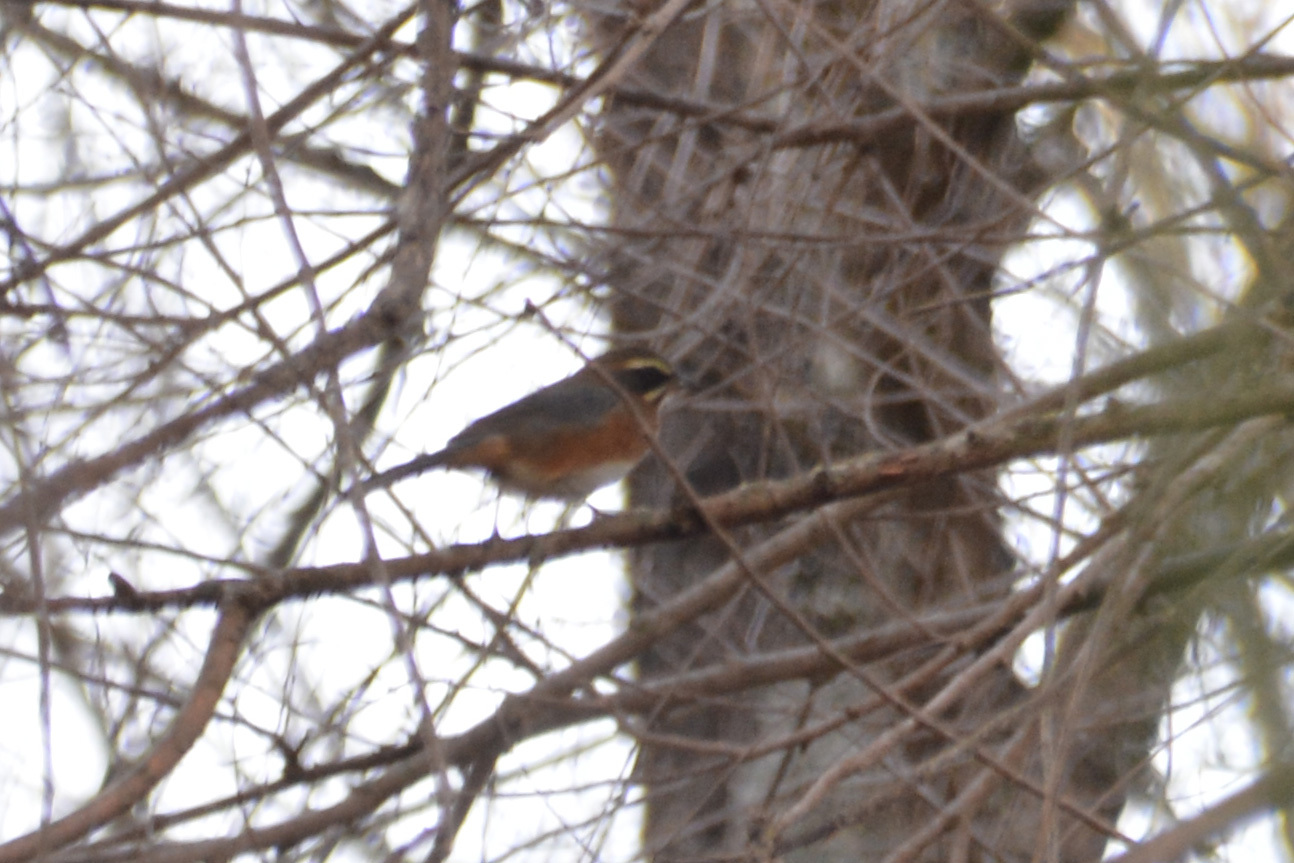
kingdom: Animalia
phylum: Chordata
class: Aves
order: Passeriformes
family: Thraupidae
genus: Poospiza
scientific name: Poospiza whitii
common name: Black-and-chestnut warbling finch
